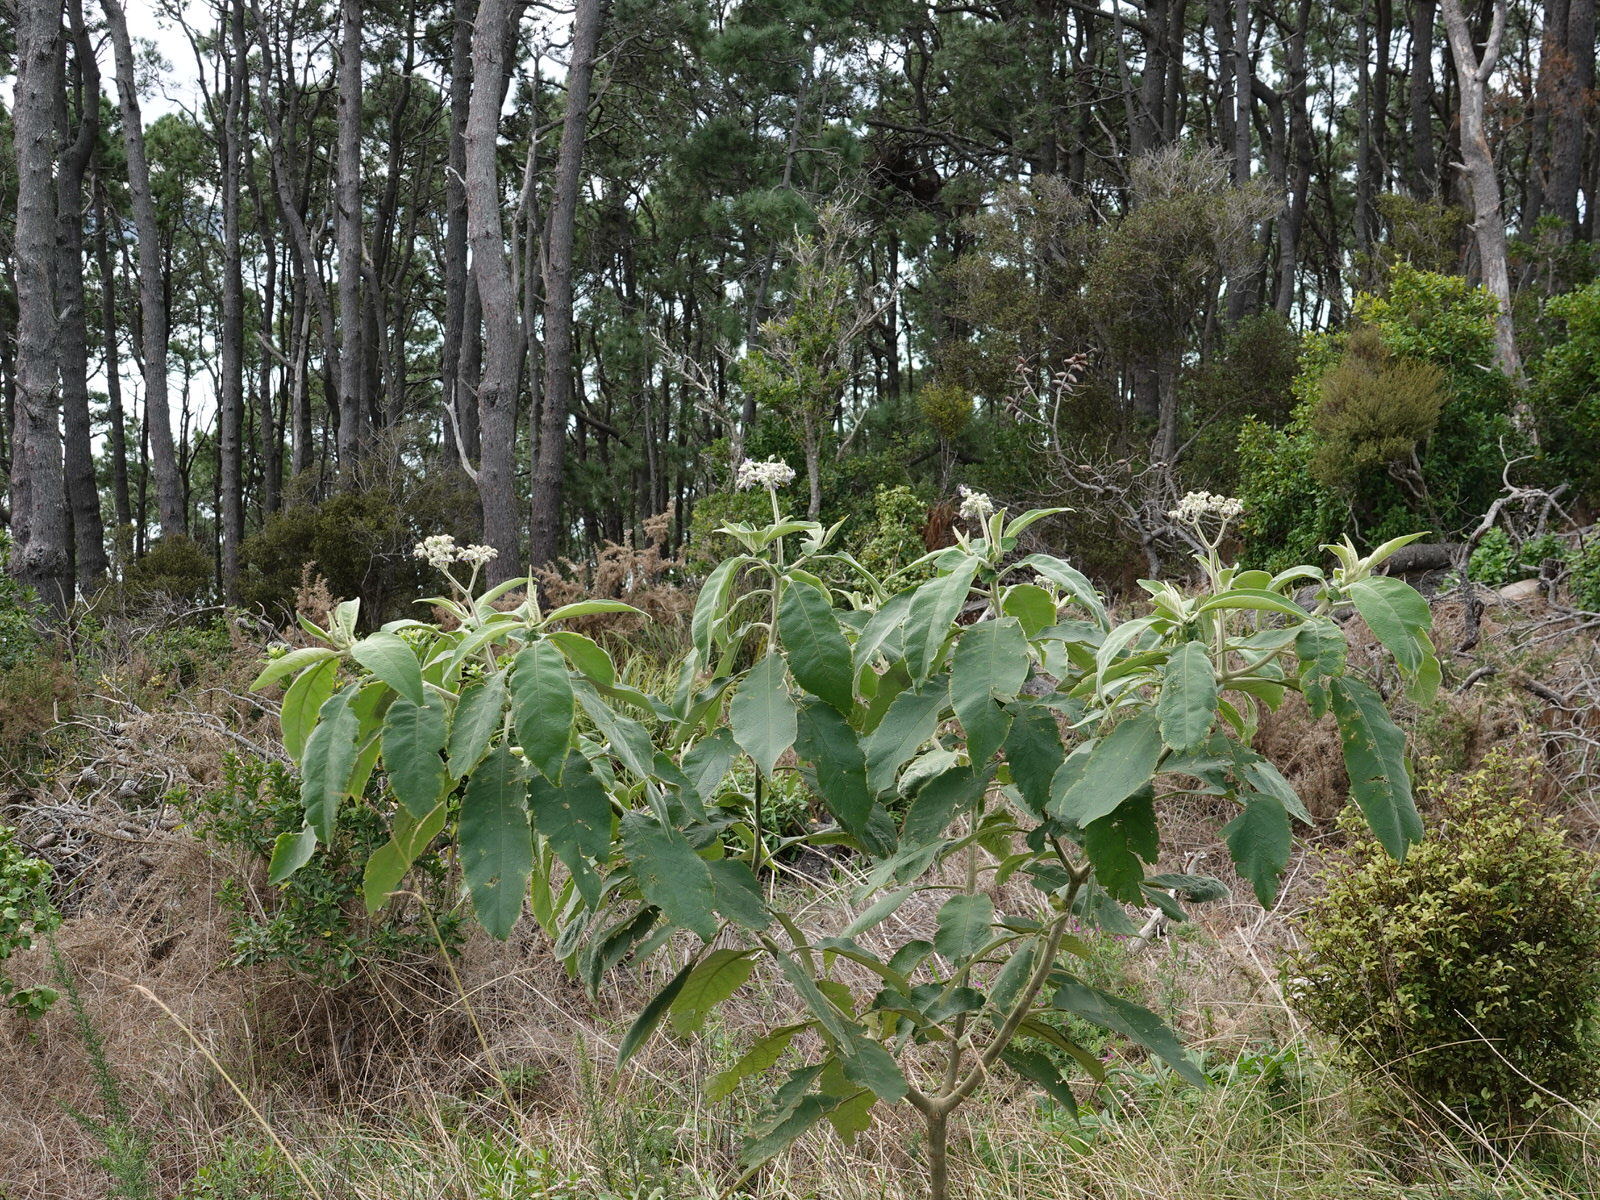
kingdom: Plantae
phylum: Tracheophyta
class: Magnoliopsida
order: Solanales
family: Solanaceae
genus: Solanum
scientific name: Solanum mauritianum
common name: Earleaf nightshade
